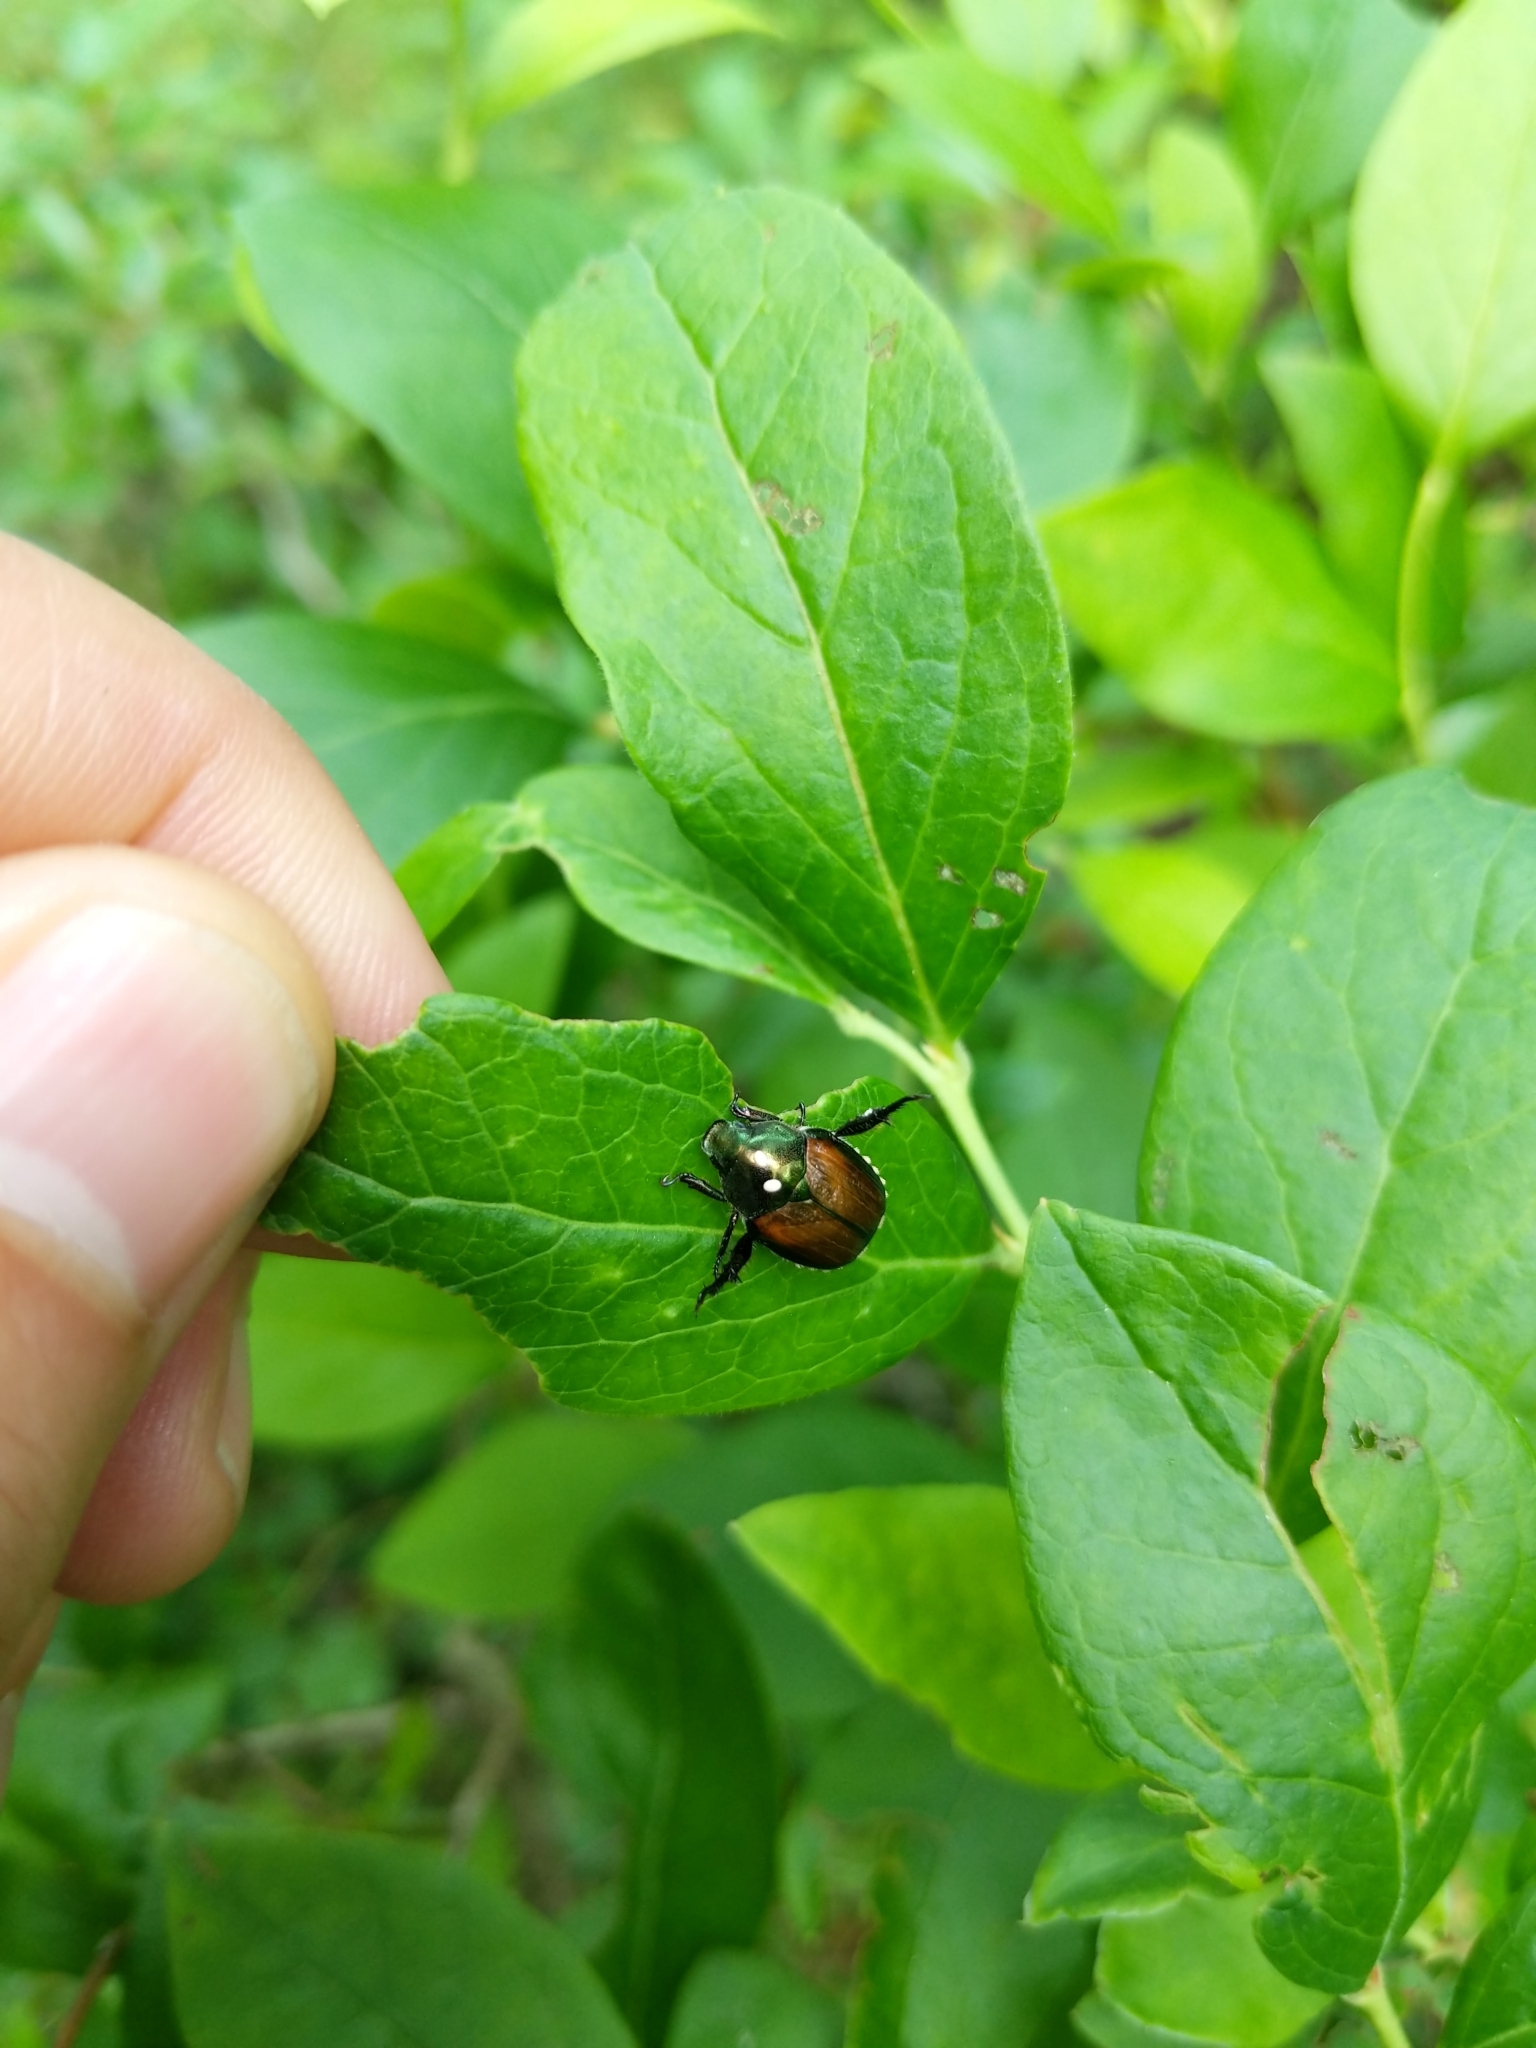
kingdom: Animalia
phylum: Arthropoda
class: Insecta
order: Diptera
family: Tachinidae
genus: Istocheta
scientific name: Istocheta aldrichi
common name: Parasitic wasp
